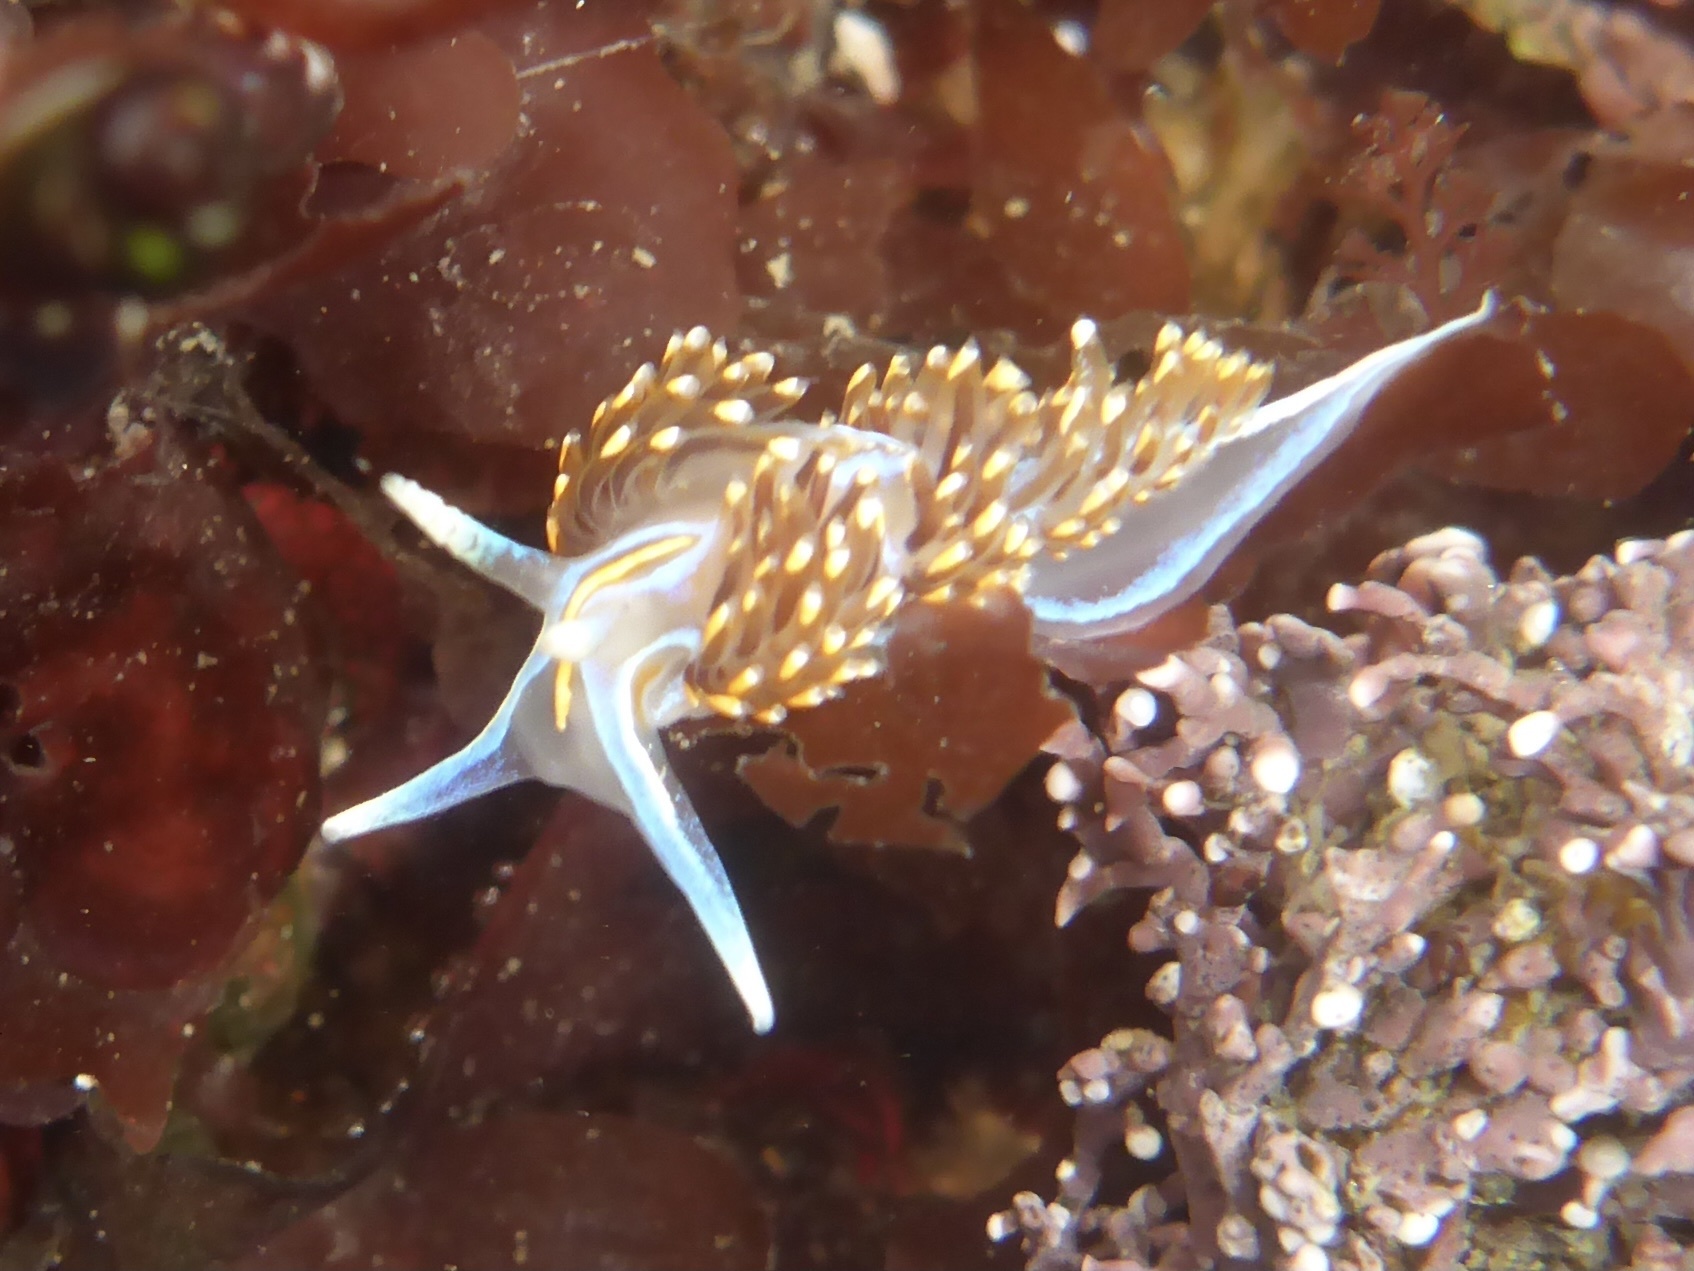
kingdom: Animalia
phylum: Mollusca
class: Gastropoda
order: Nudibranchia
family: Myrrhinidae
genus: Hermissenda
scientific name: Hermissenda opalescens
